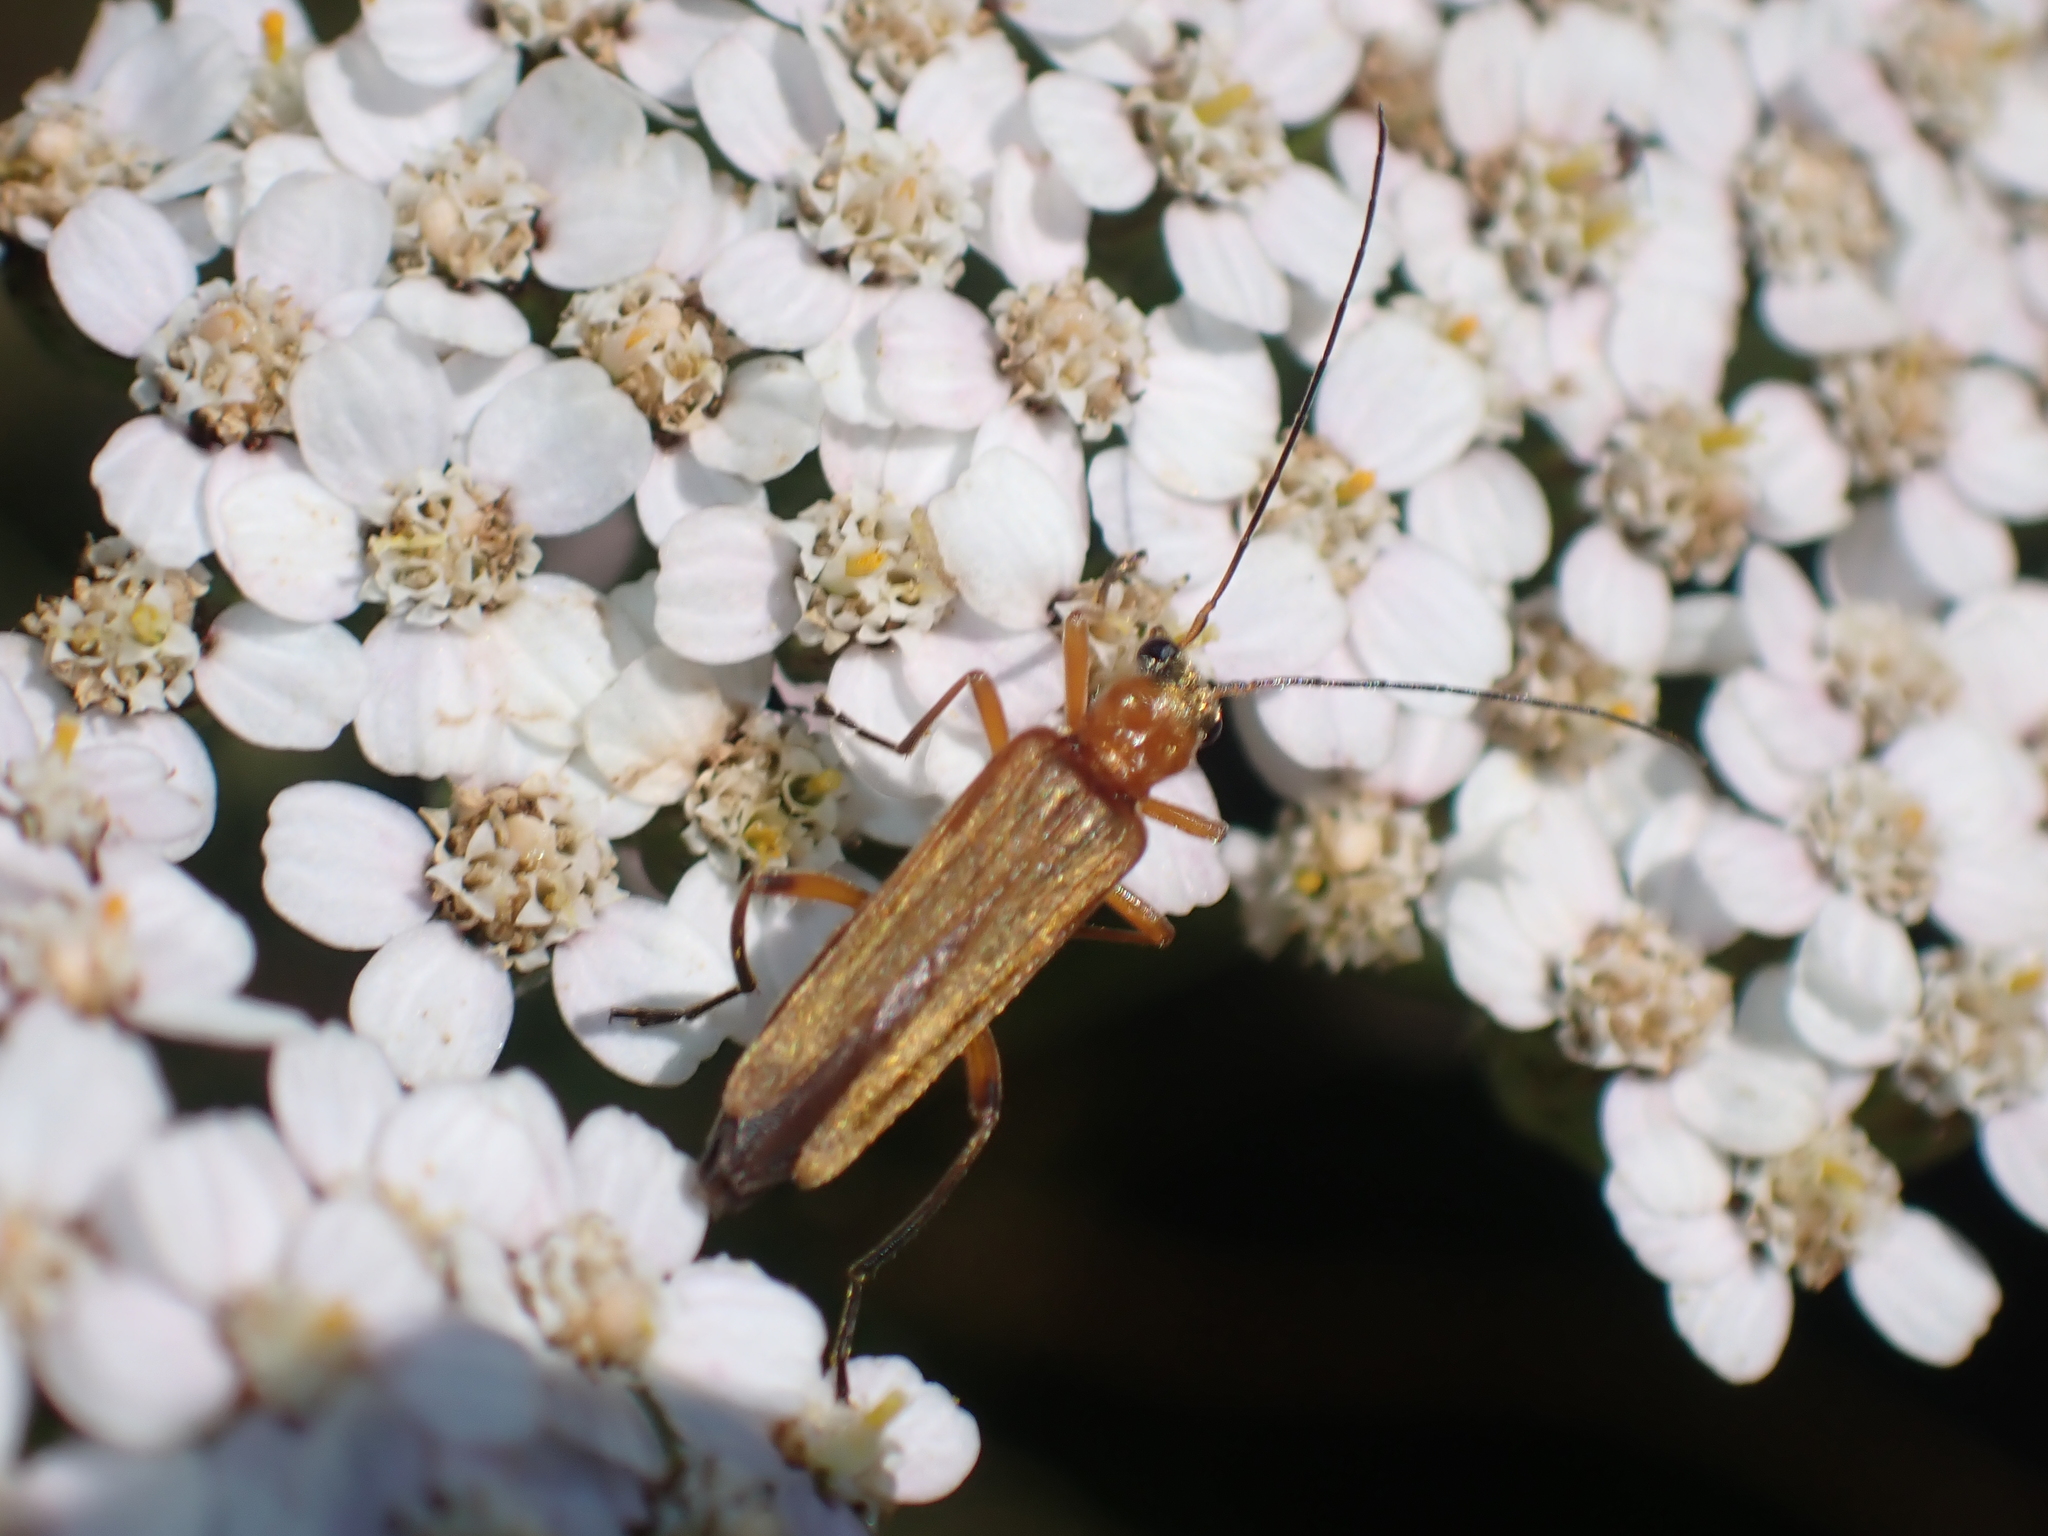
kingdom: Animalia
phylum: Arthropoda
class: Insecta
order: Coleoptera
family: Oedemeridae
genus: Oedemera
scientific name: Oedemera podagrariae
